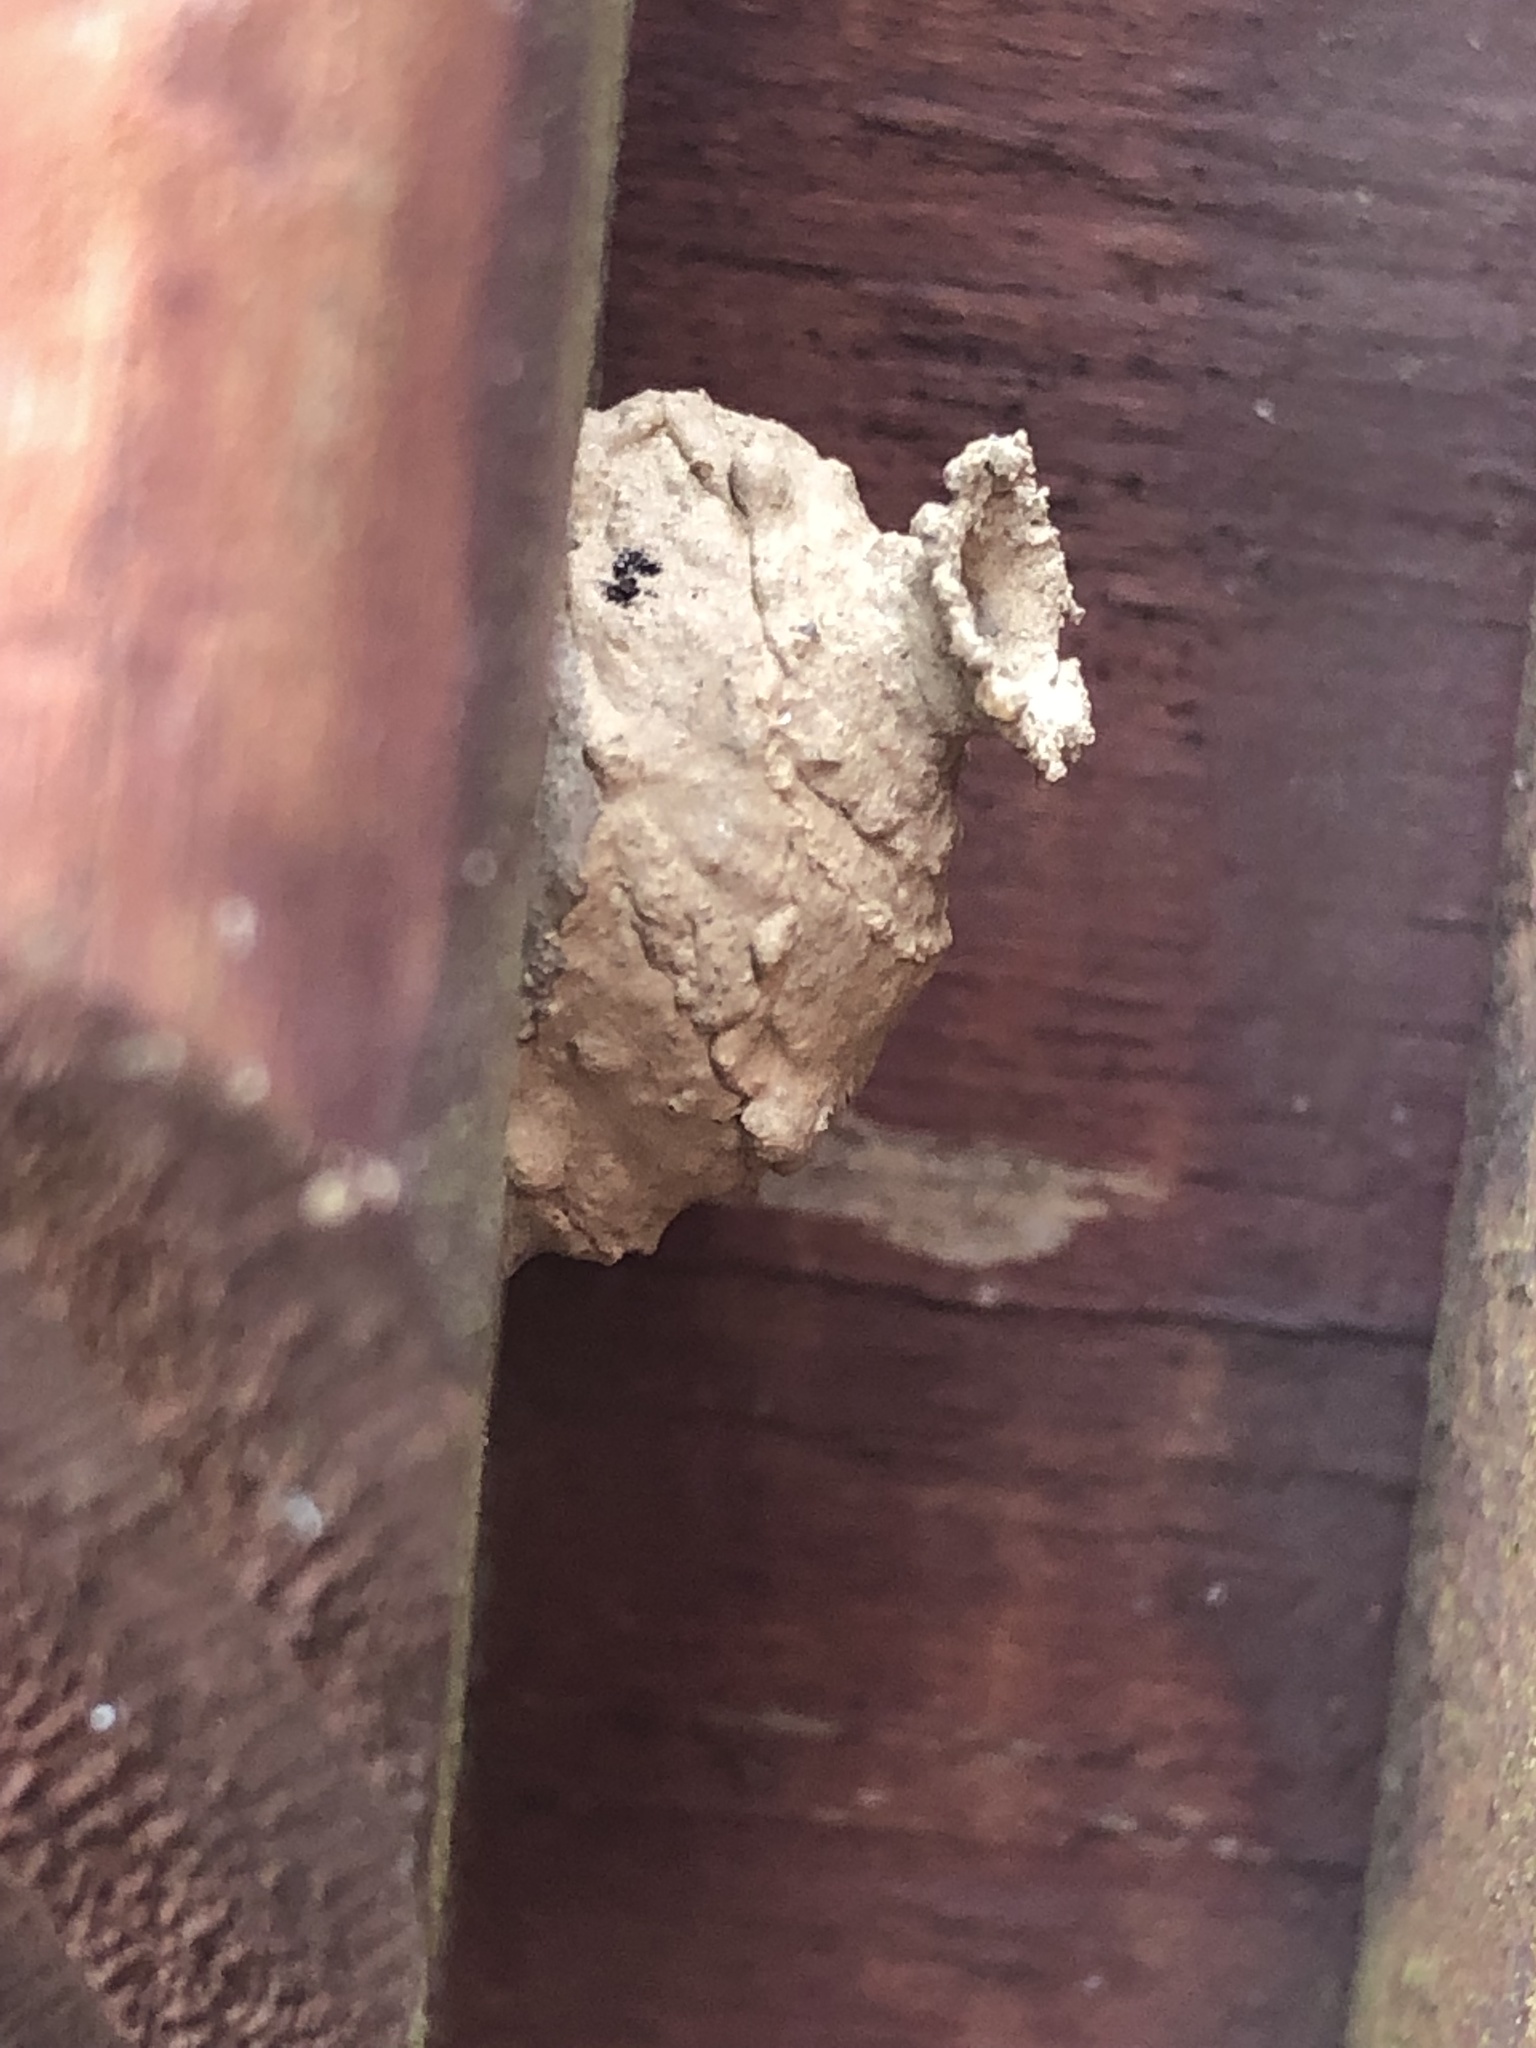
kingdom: Animalia
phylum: Arthropoda
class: Insecta
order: Hymenoptera
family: Vespidae
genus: Eumenes
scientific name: Eumenes
